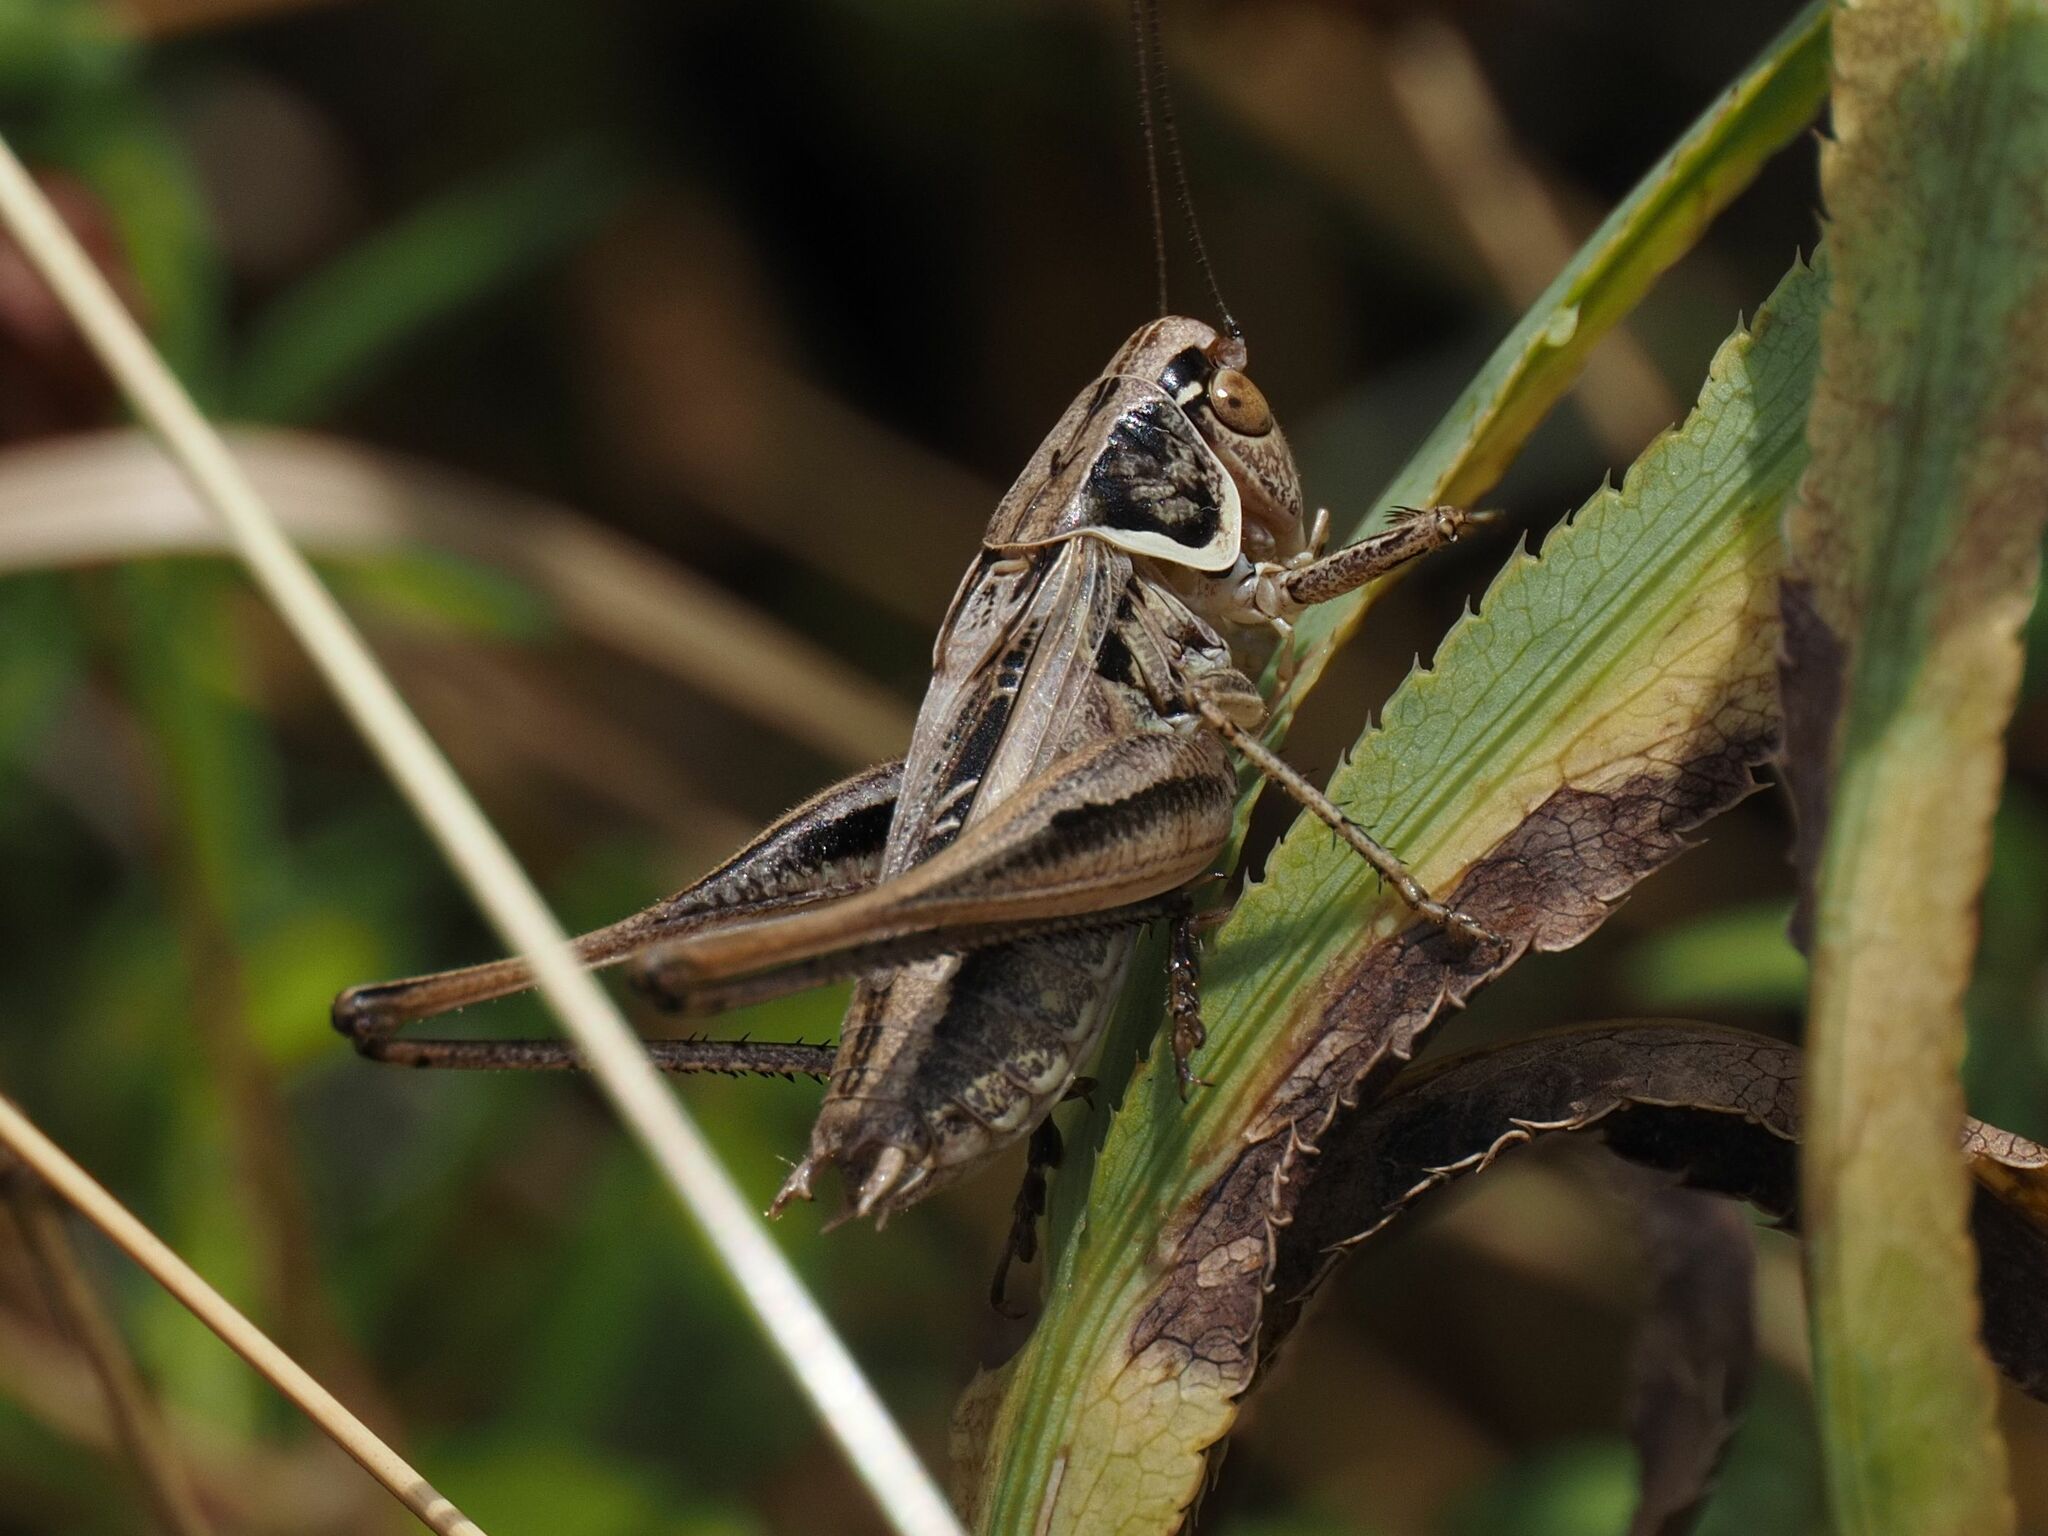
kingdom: Animalia
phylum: Arthropoda
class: Insecta
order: Orthoptera
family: Tettigoniidae
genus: Tessellana
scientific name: Tessellana veyseli
